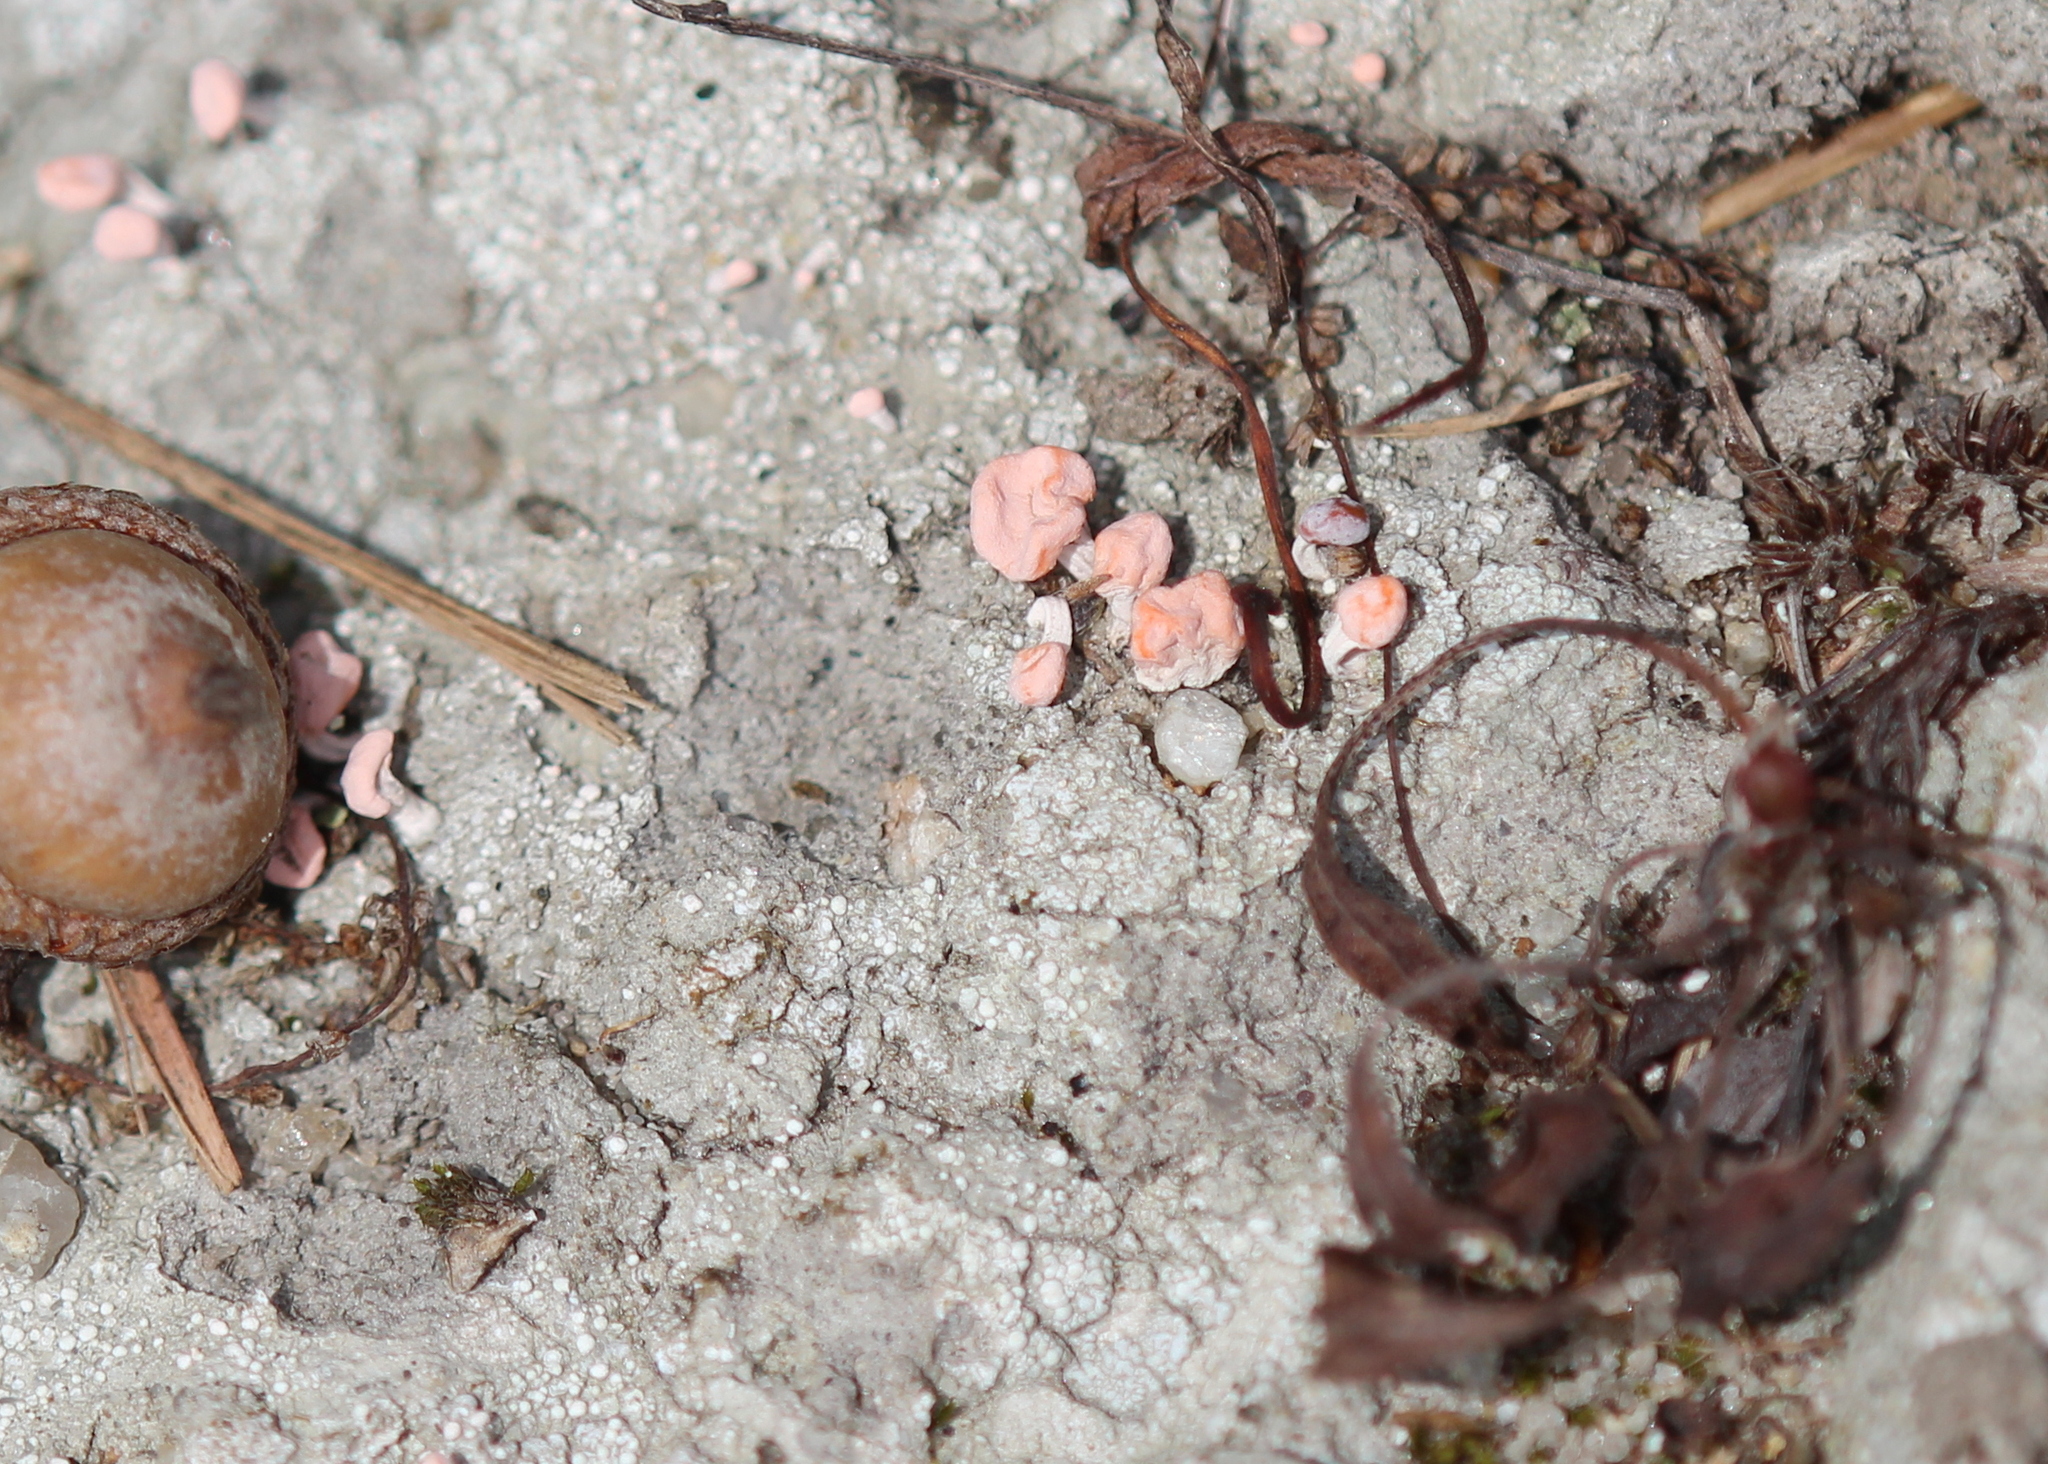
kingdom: Fungi
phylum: Ascomycota
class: Lecanoromycetes
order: Pertusariales
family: Icmadophilaceae
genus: Dibaeis
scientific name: Dibaeis baeomyces
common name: Pink earth lichen
